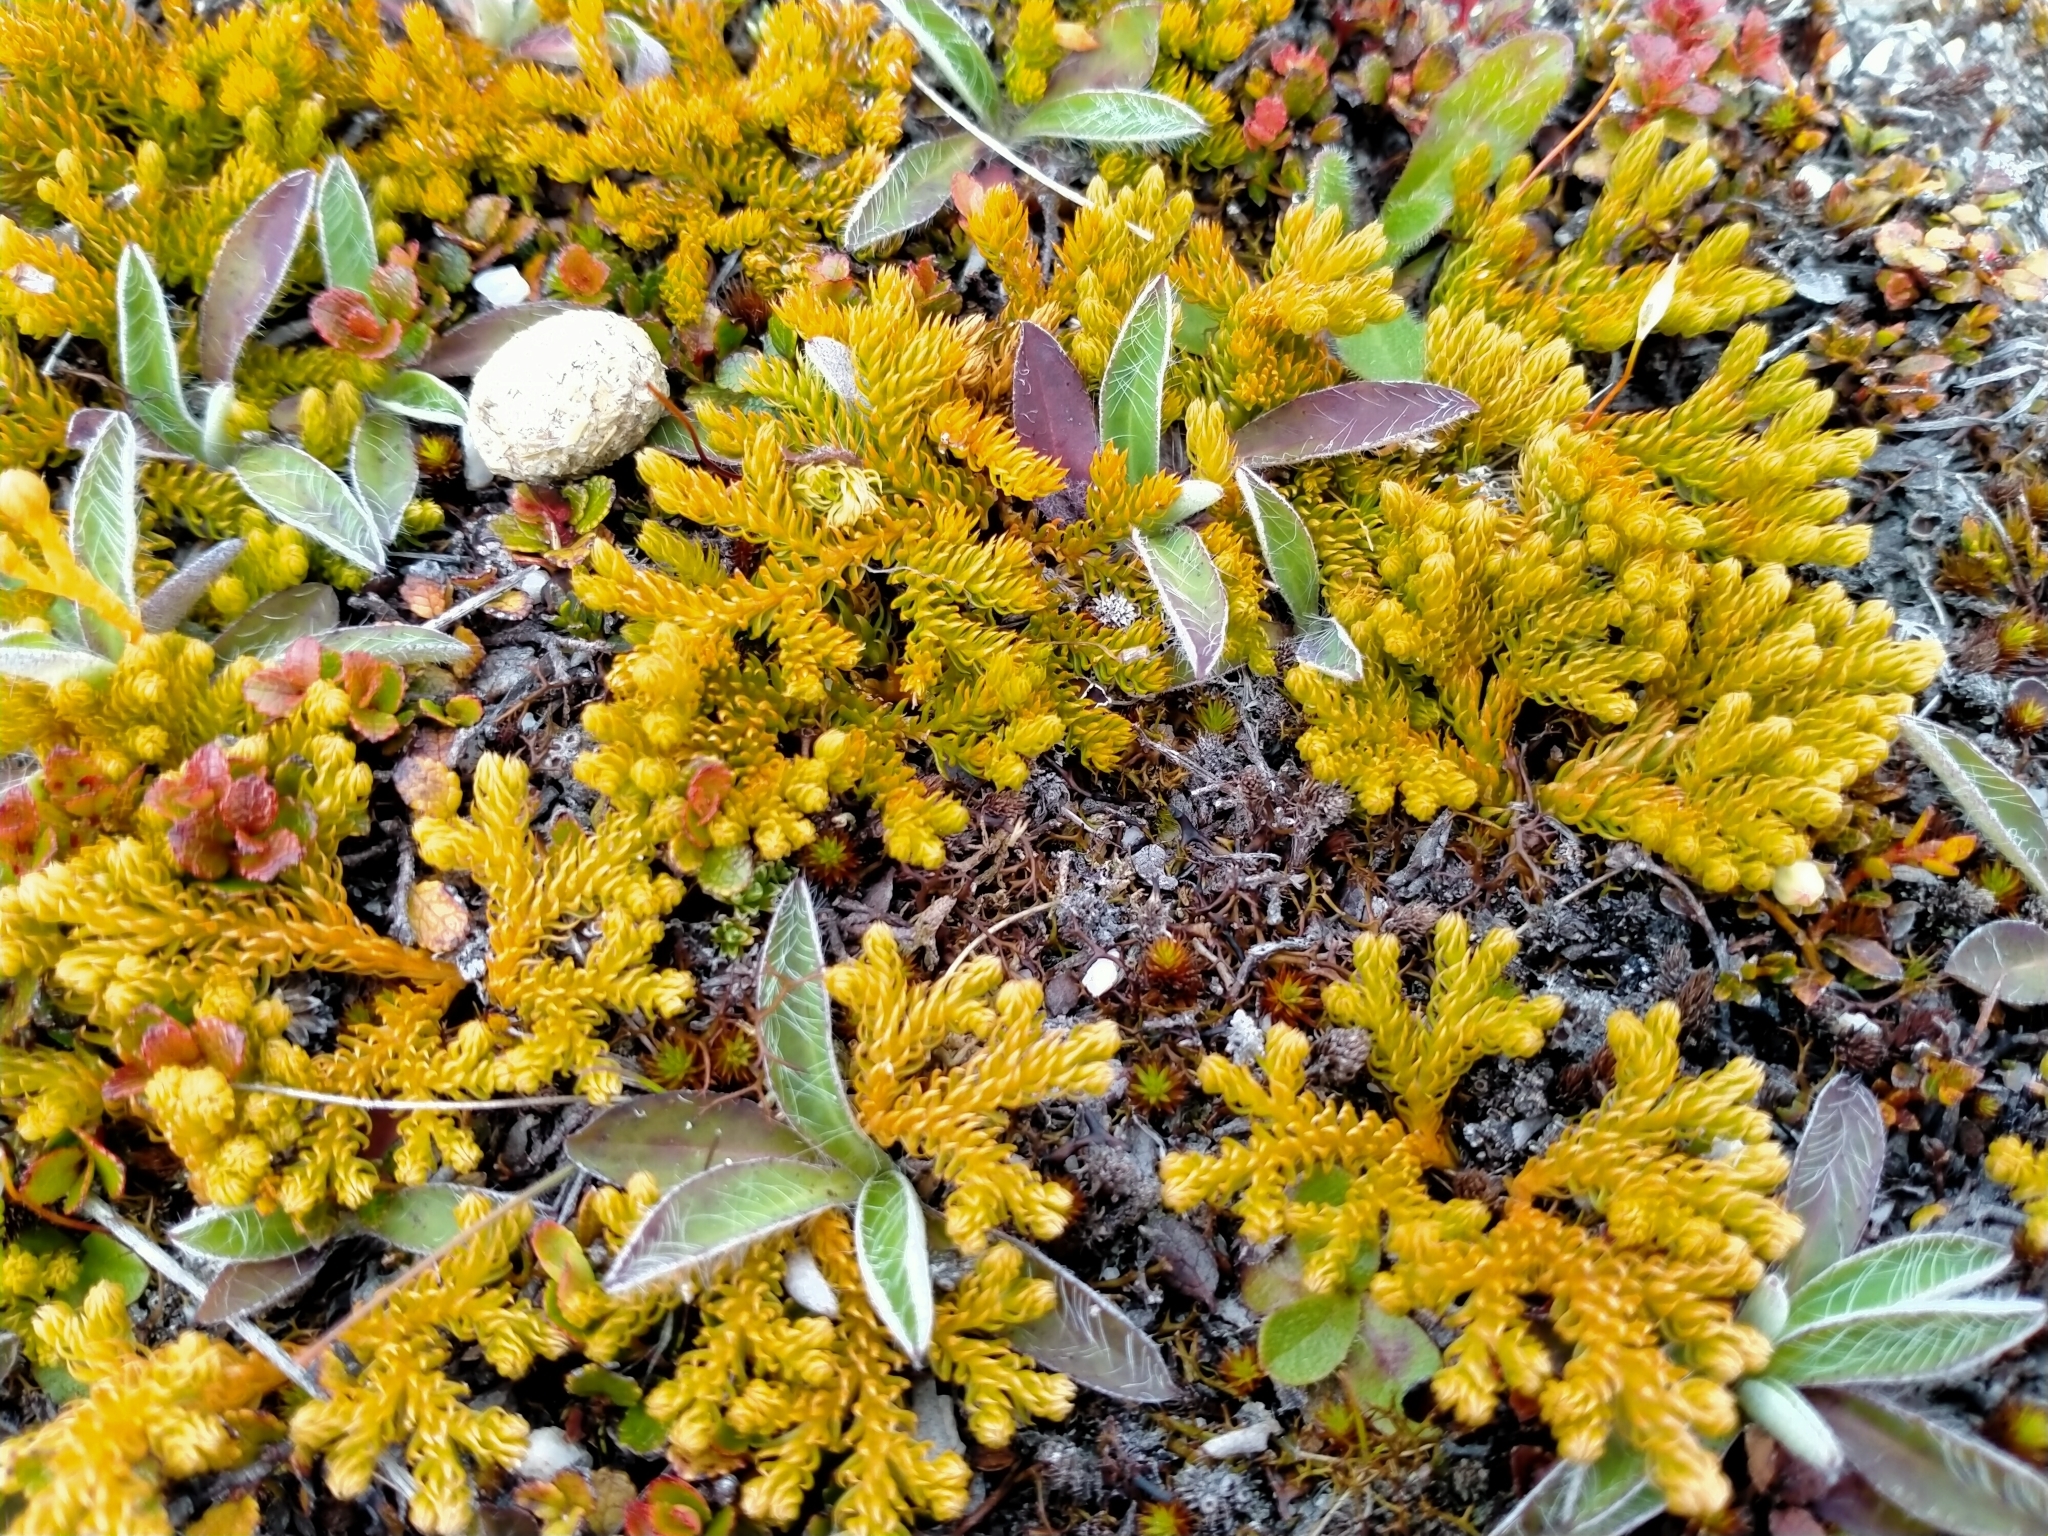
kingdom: Plantae
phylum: Tracheophyta
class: Lycopodiopsida
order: Lycopodiales
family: Lycopodiaceae
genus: Austrolycopodium
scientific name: Austrolycopodium fastigiatum
